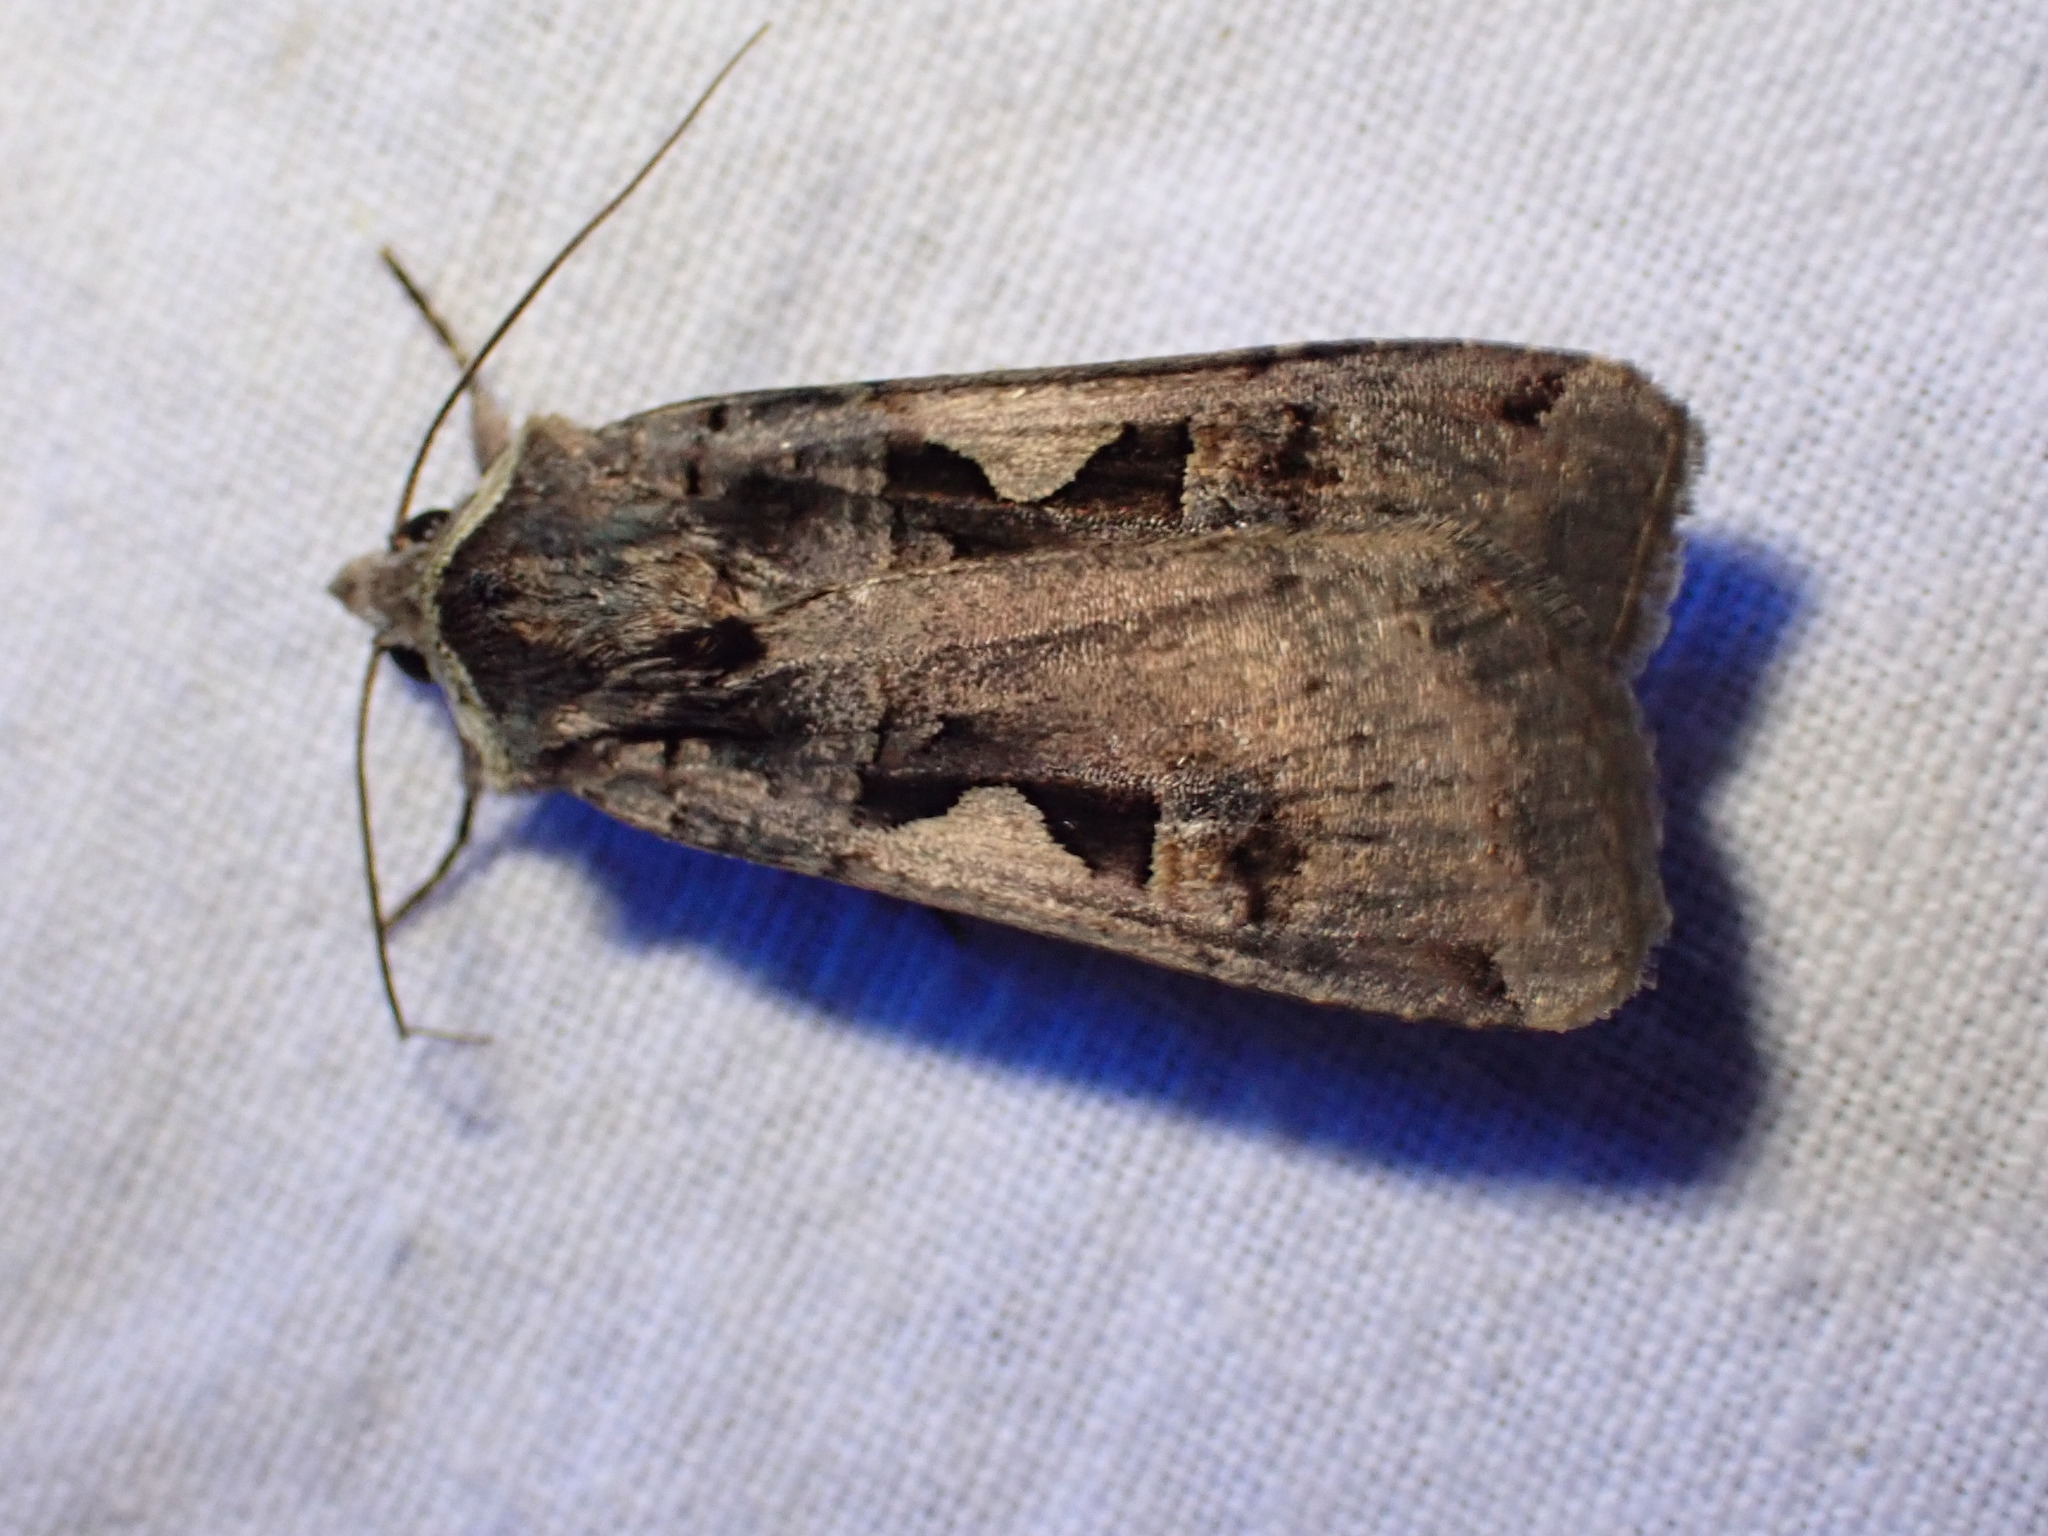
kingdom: Animalia
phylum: Arthropoda
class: Insecta
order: Lepidoptera
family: Noctuidae
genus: Xestia
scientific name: Xestia c-nigrum
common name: Setaceous hebrew character
